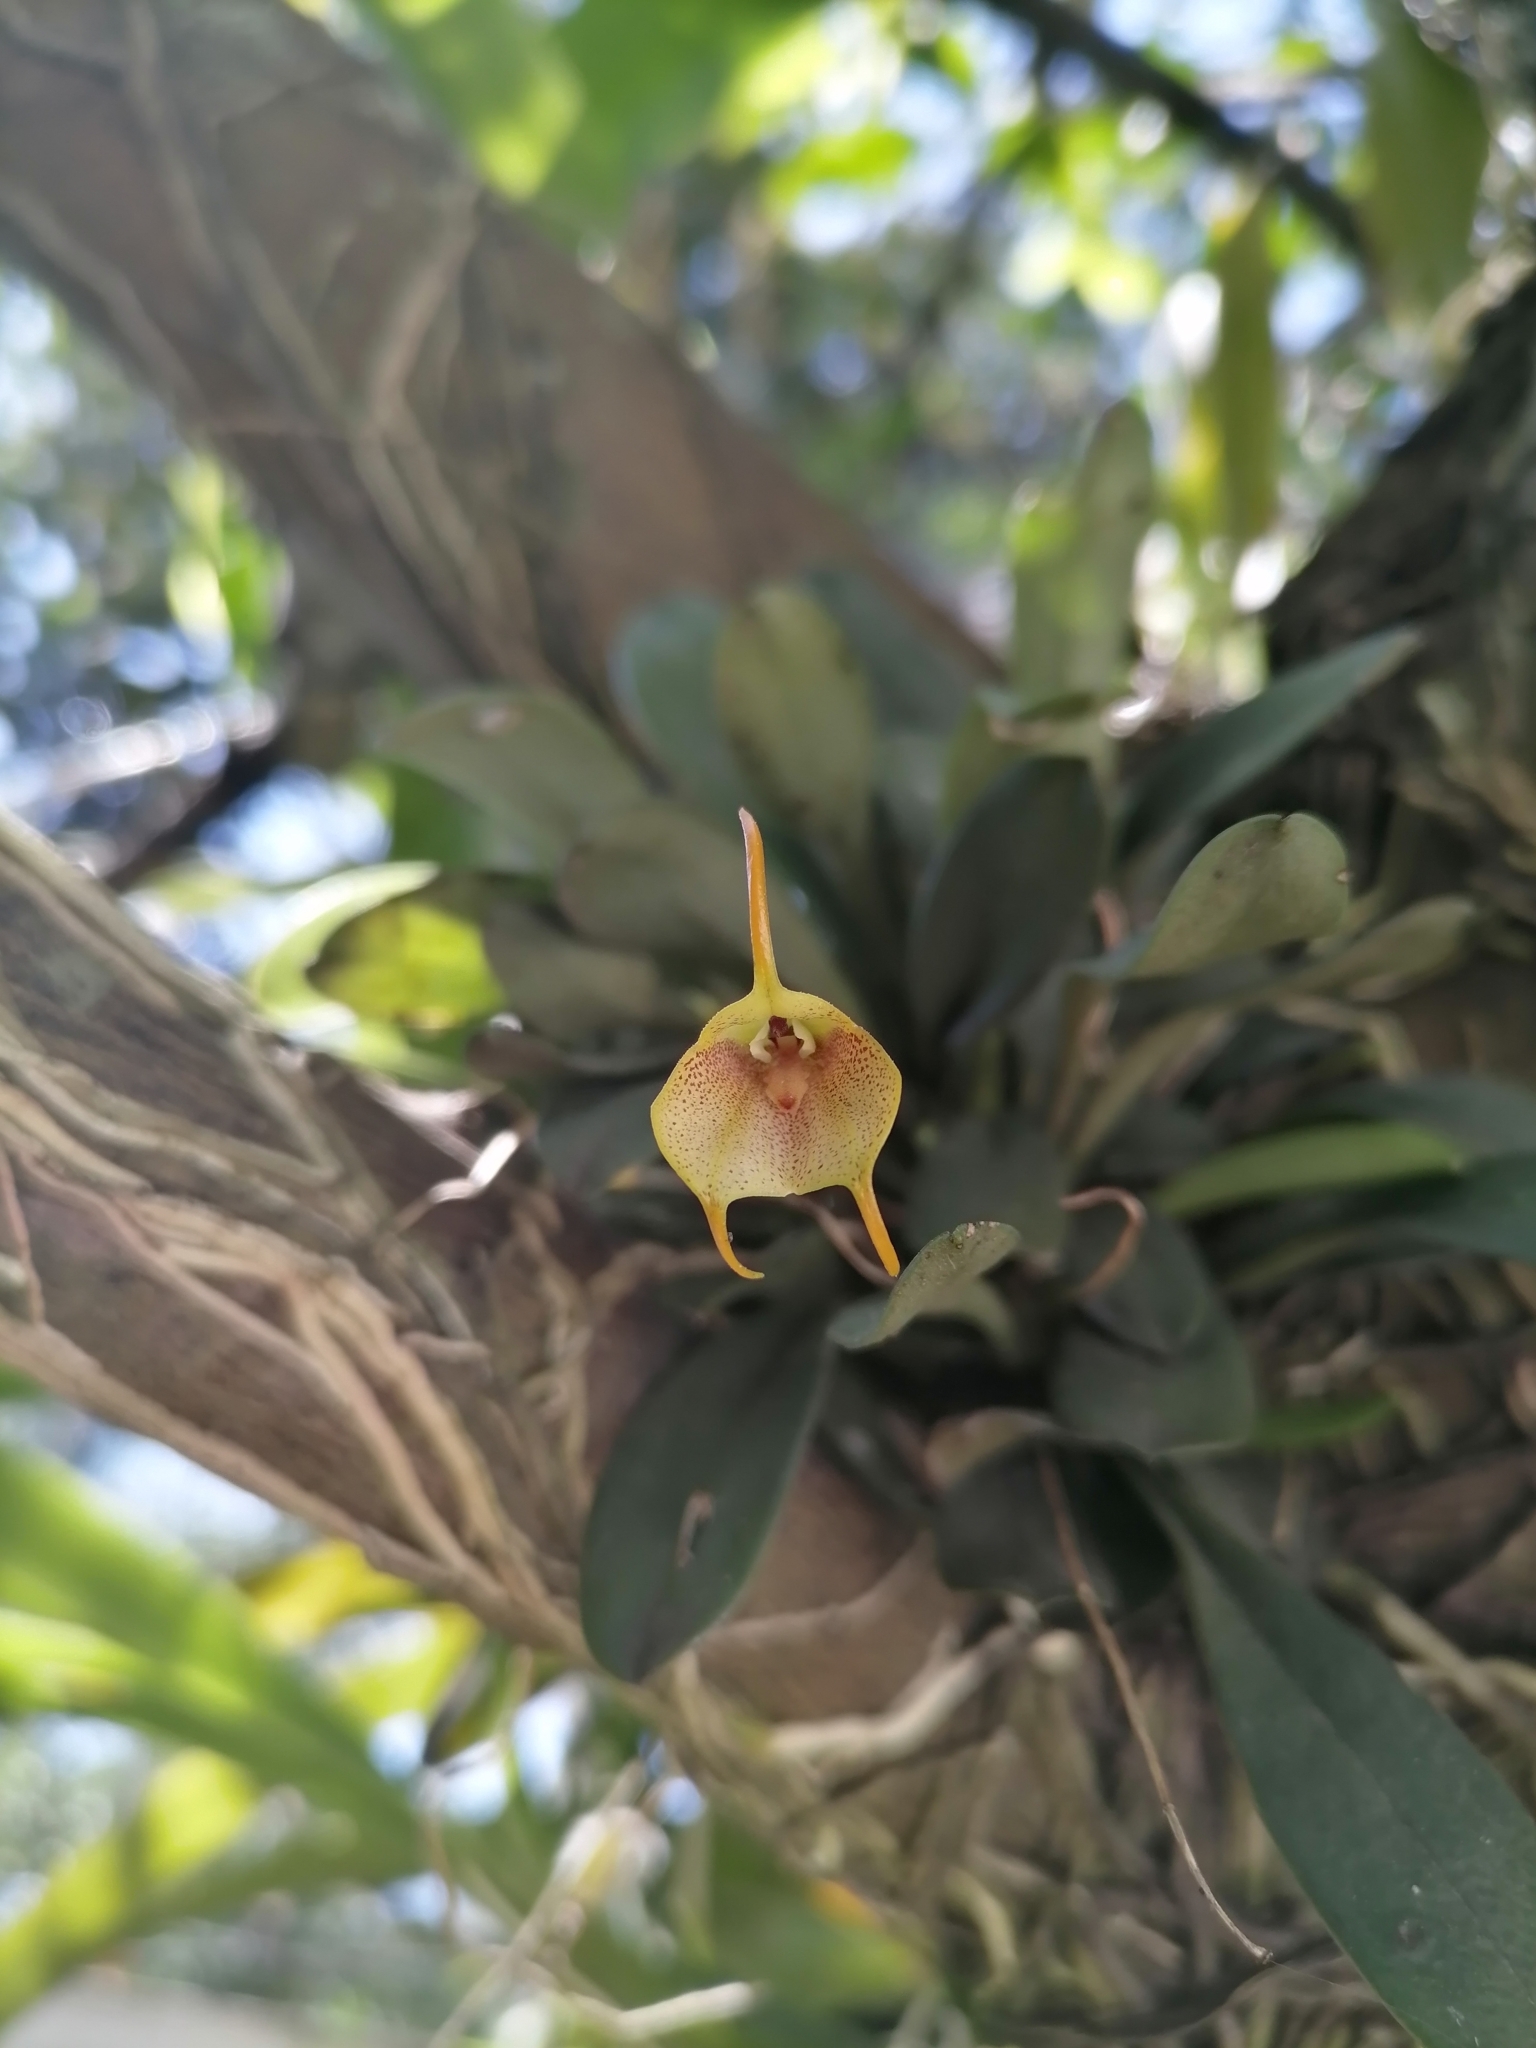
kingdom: Plantae
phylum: Tracheophyta
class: Liliopsida
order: Asparagales
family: Orchidaceae
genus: Masdevallia
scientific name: Masdevallia floribunda
